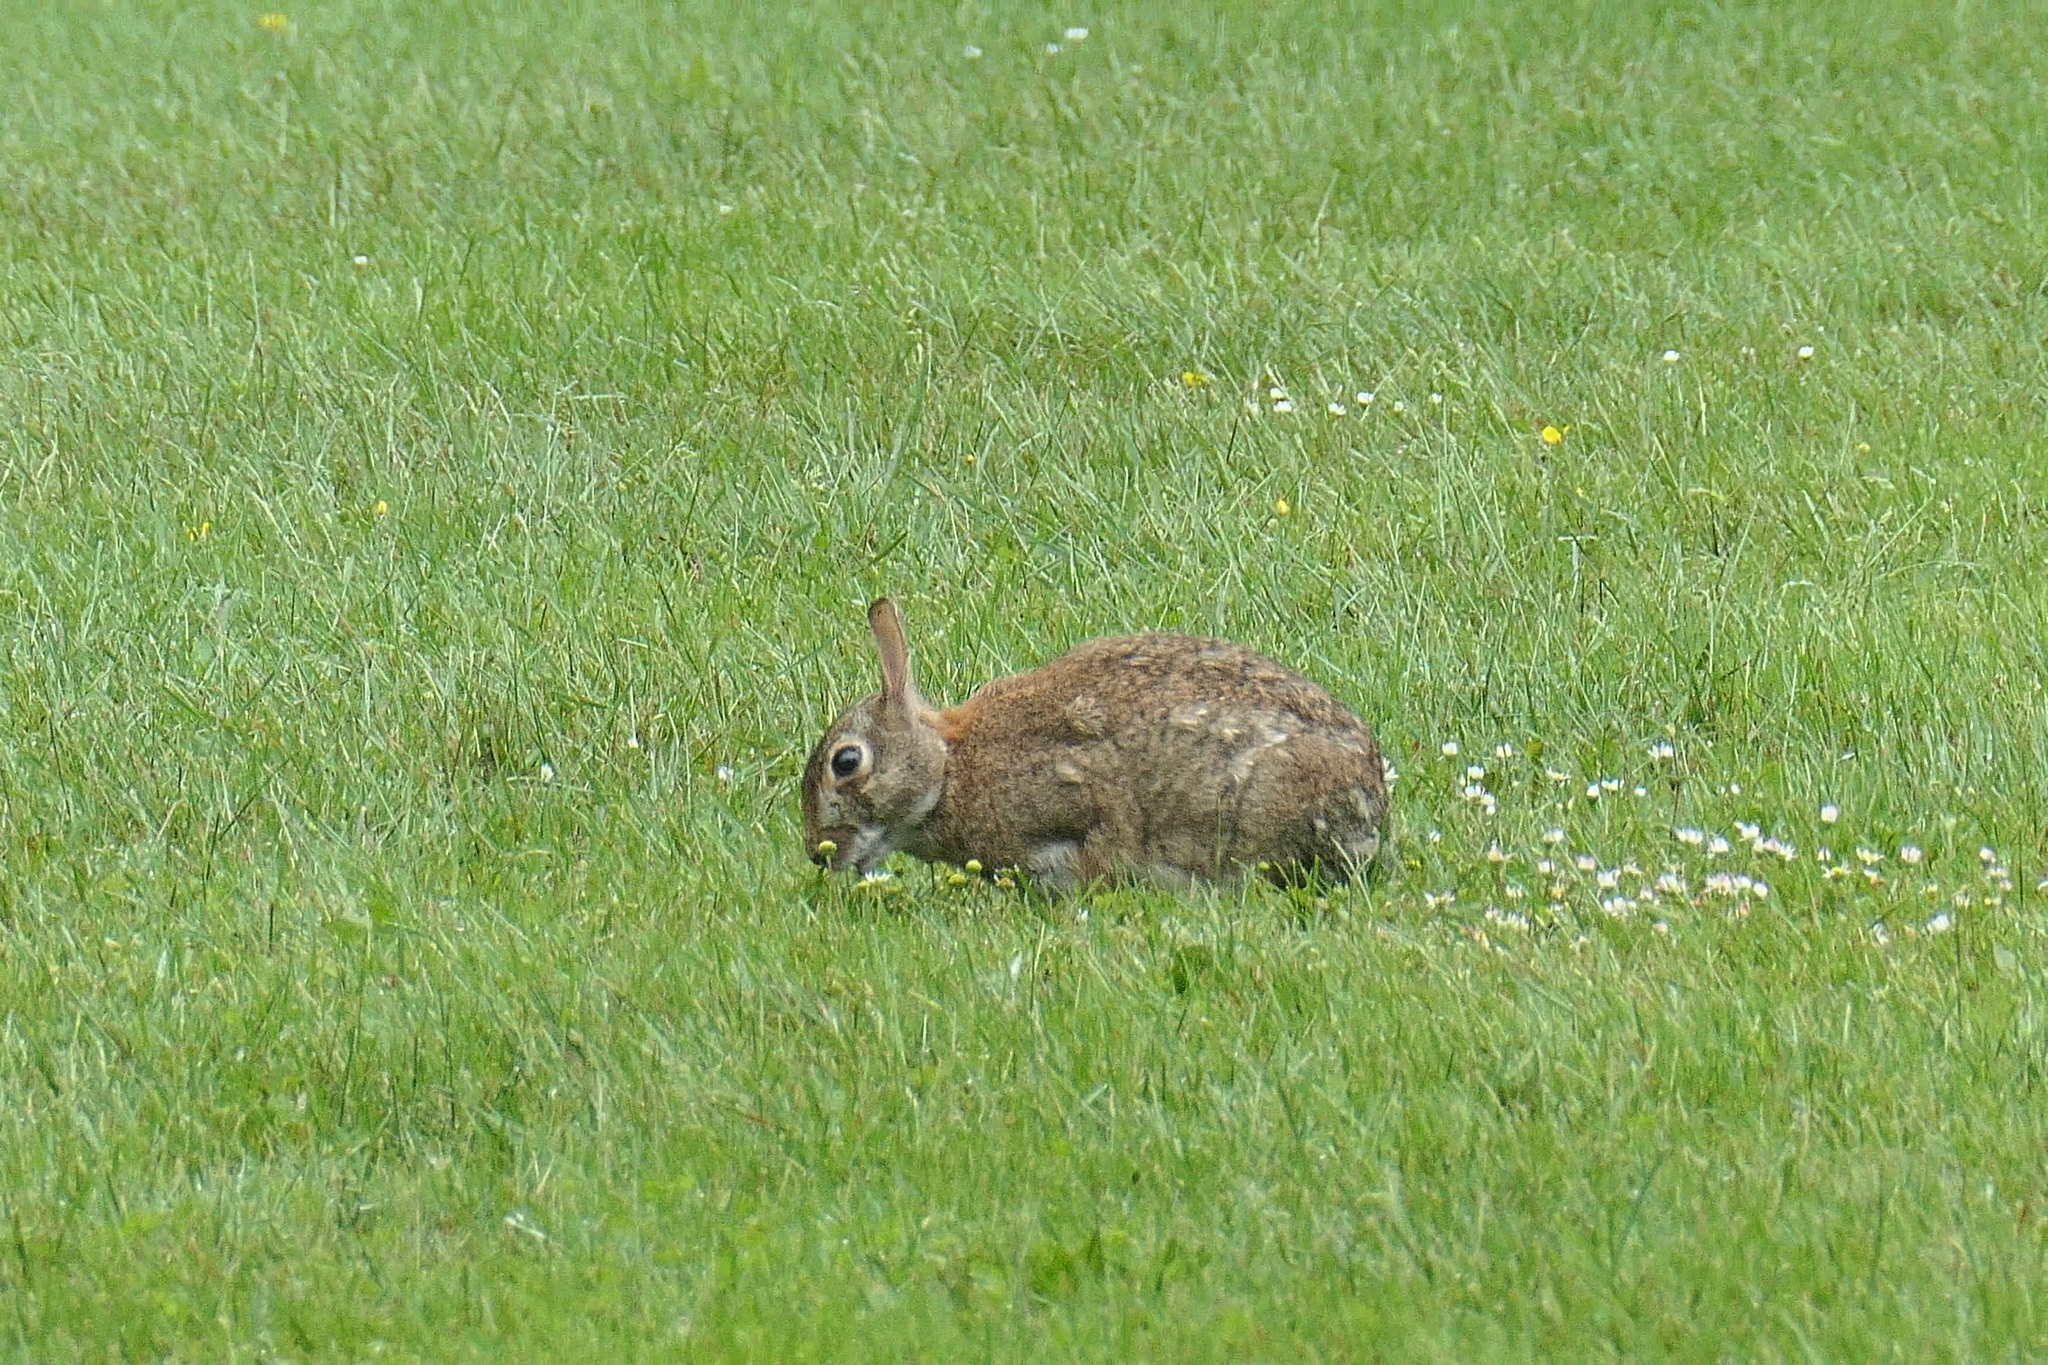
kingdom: Animalia
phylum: Chordata
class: Mammalia
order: Lagomorpha
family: Leporidae
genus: Sylvilagus
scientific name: Sylvilagus floridanus
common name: Eastern cottontail
